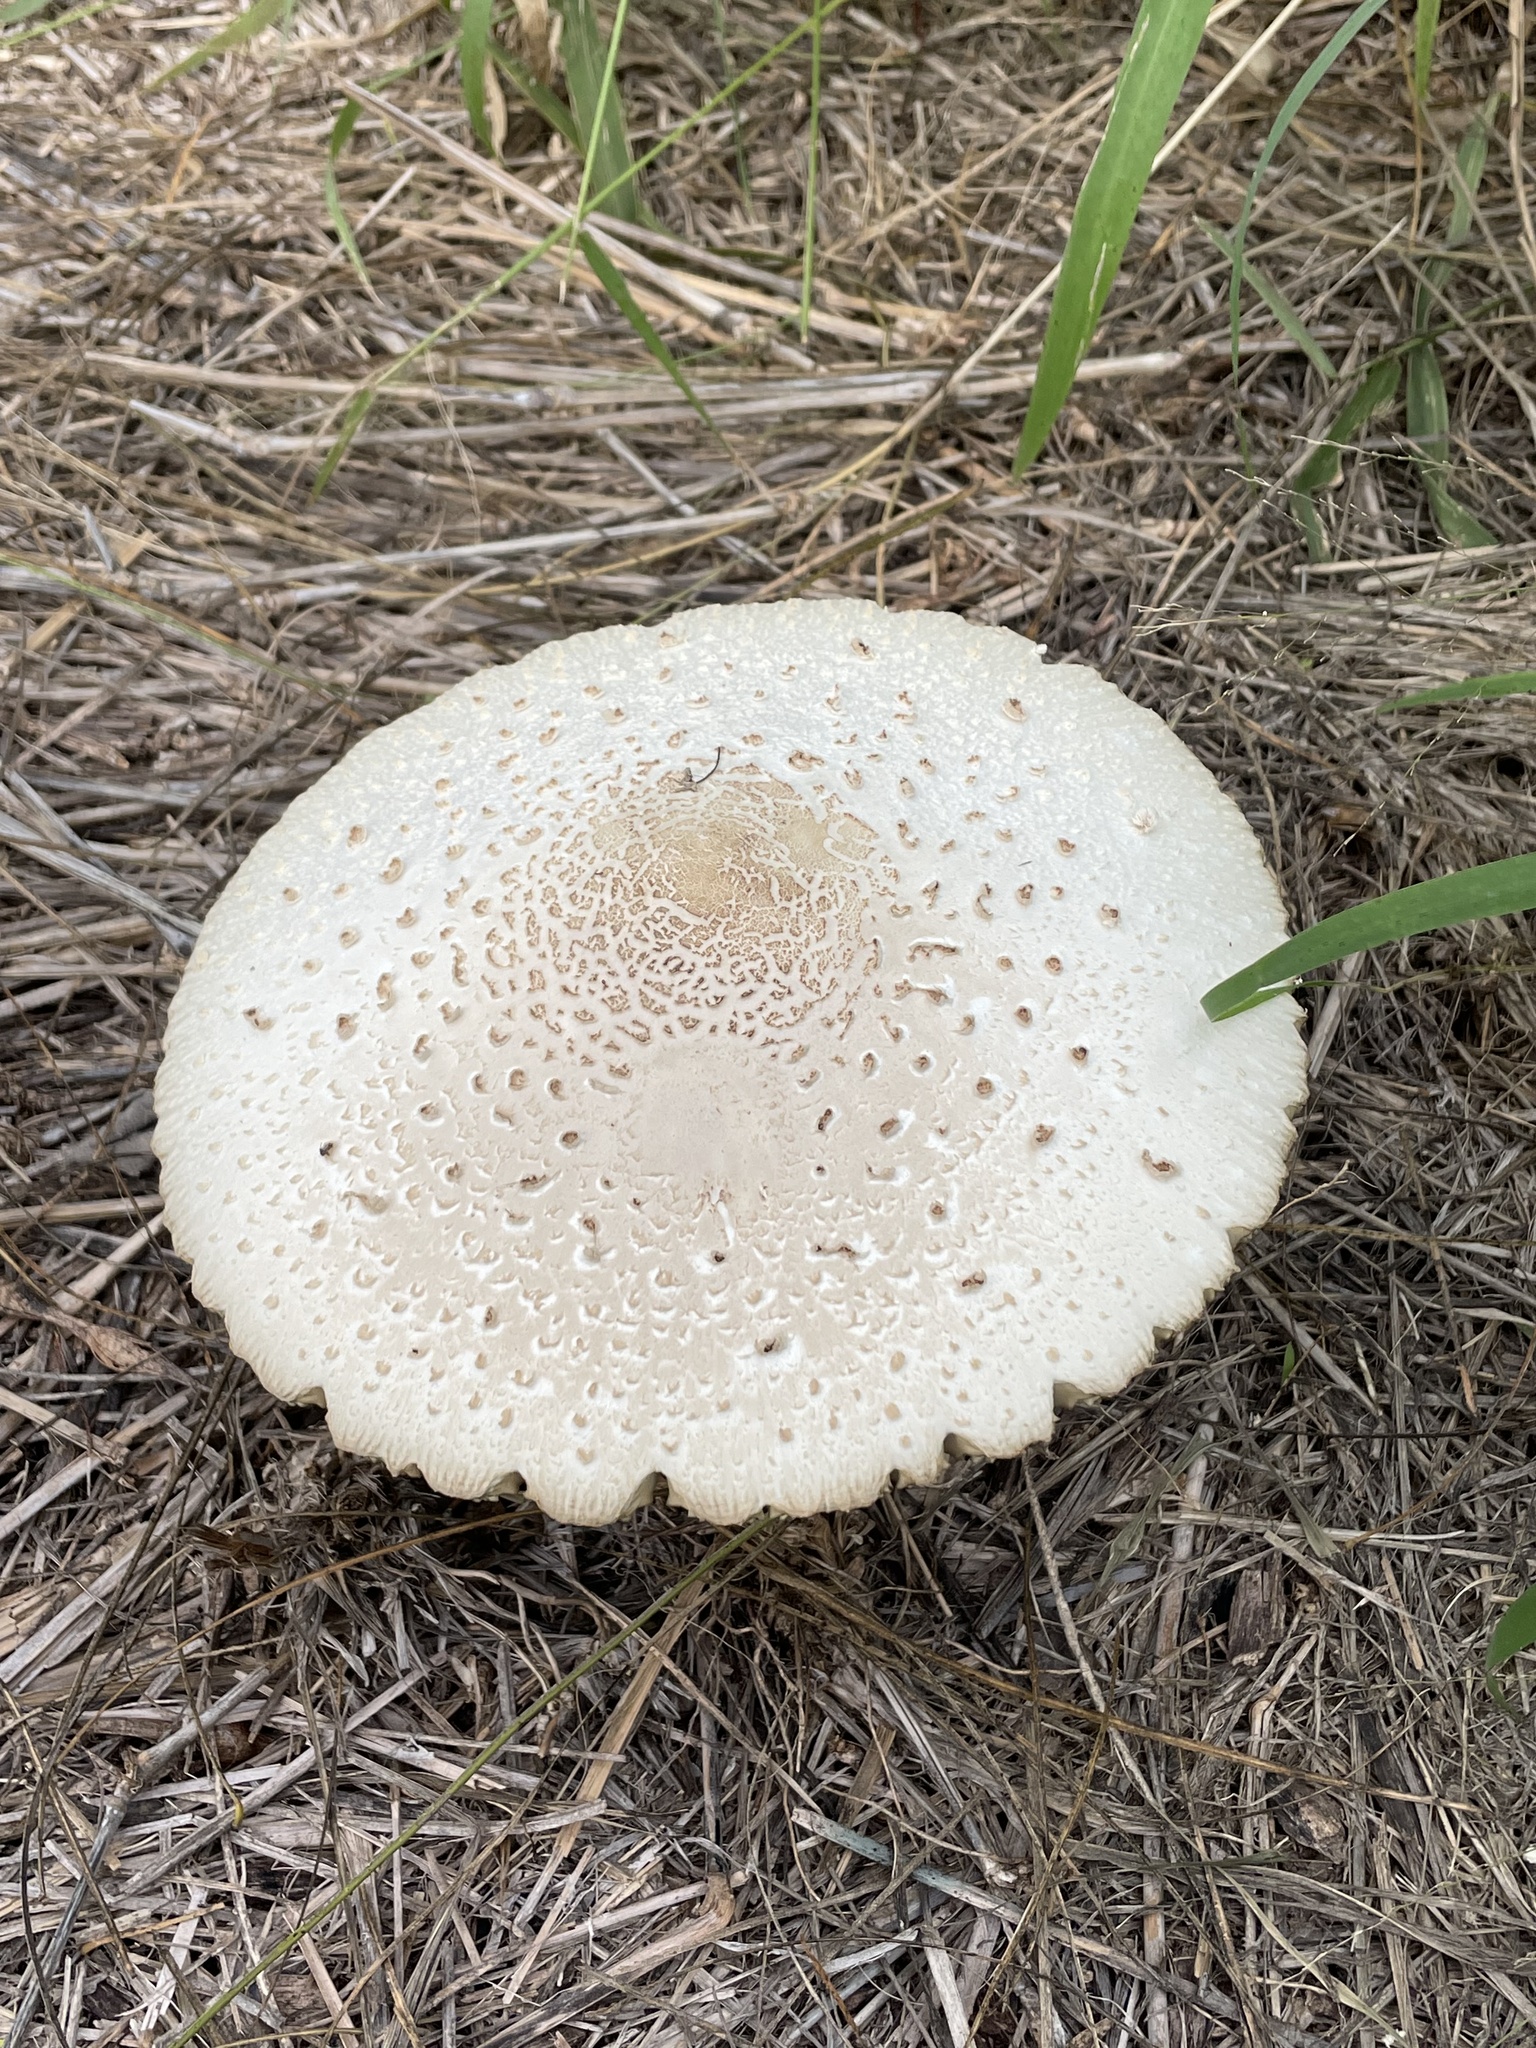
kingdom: Fungi
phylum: Basidiomycota
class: Agaricomycetes
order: Agaricales
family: Agaricaceae
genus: Chlorophyllum
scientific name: Chlorophyllum molybdites
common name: False parasol
